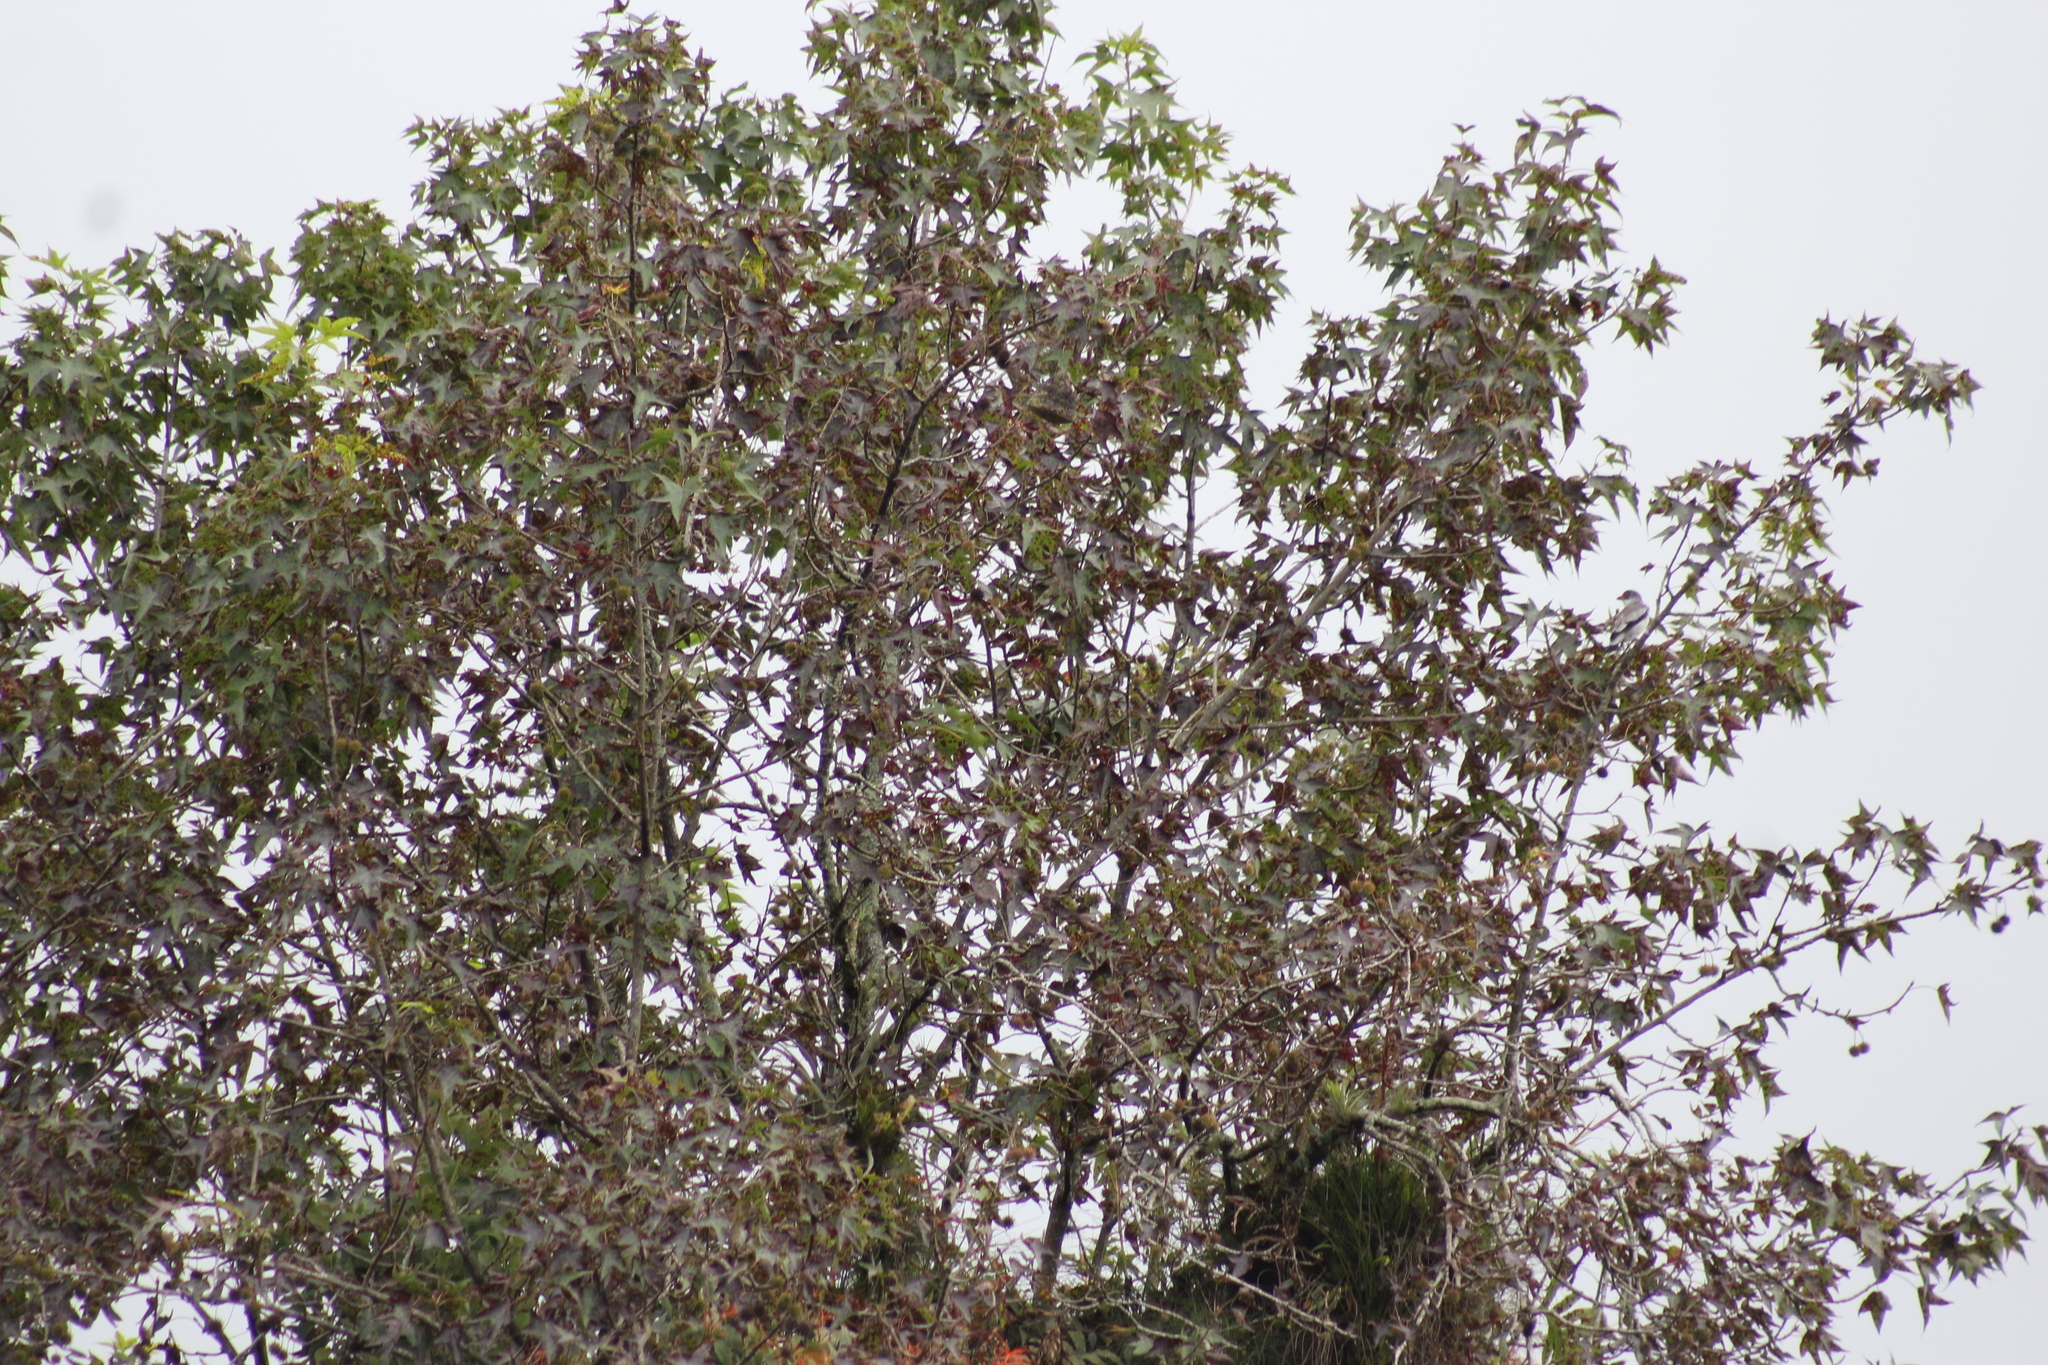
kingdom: Animalia
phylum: Chordata
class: Aves
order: Passeriformes
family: Cotingidae
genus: Tityra
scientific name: Tityra semifasciata
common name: Masked tityra
